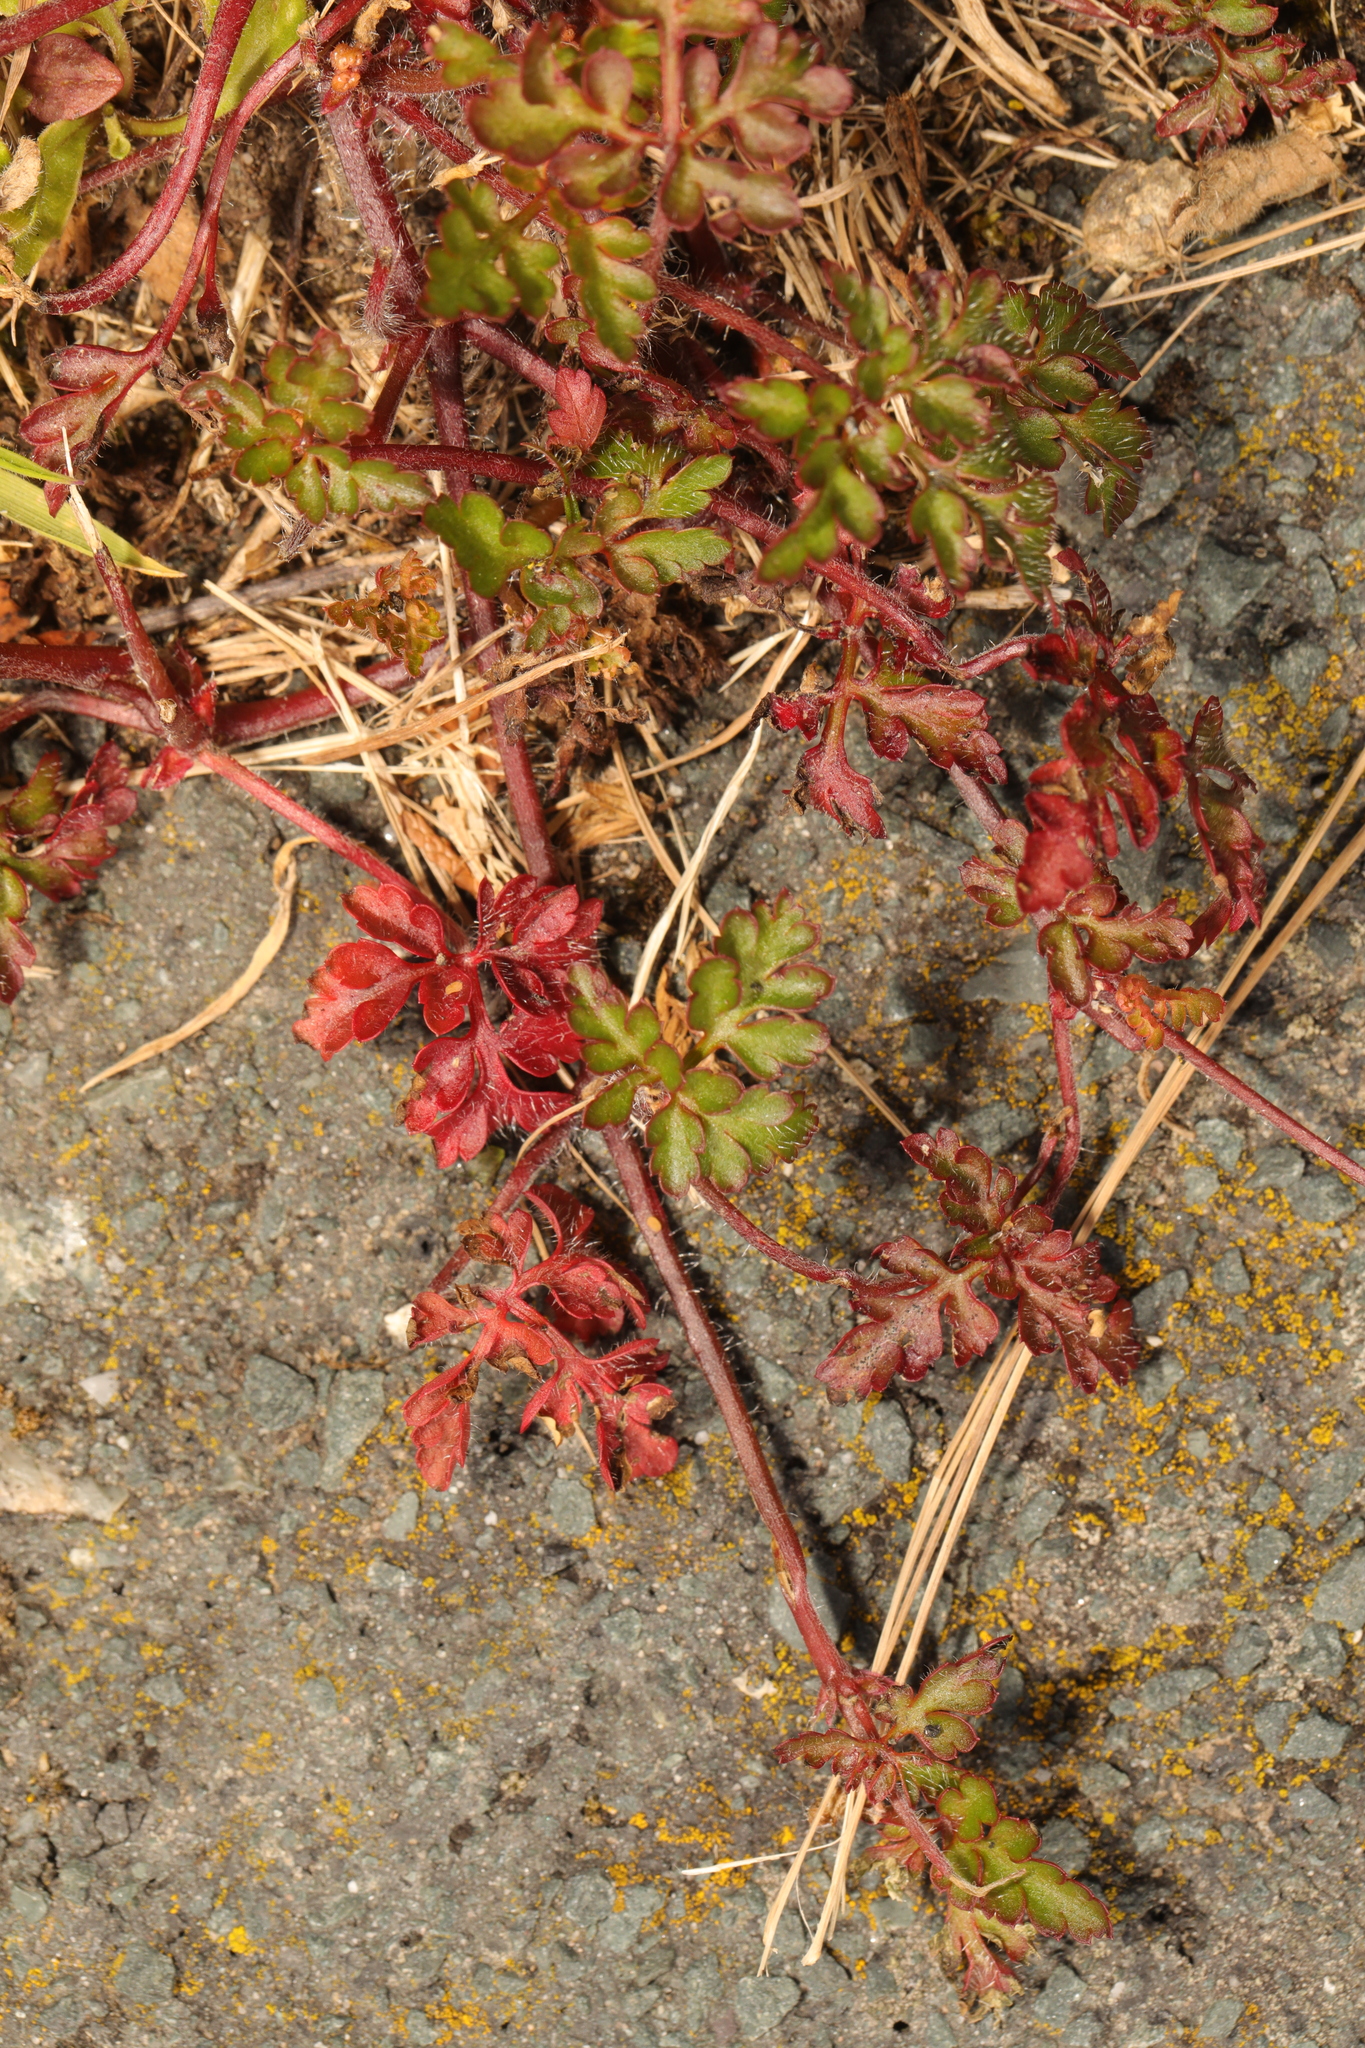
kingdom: Plantae
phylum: Tracheophyta
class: Magnoliopsida
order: Geraniales
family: Geraniaceae
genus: Geranium
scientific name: Geranium robertianum
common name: Herb-robert
